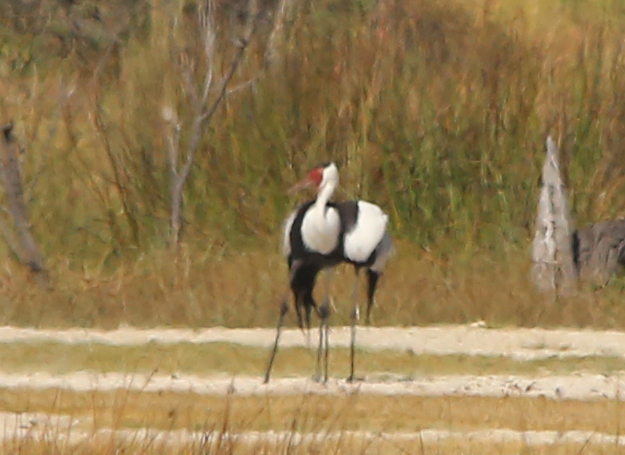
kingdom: Animalia
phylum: Chordata
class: Aves
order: Gruiformes
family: Gruidae
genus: Bugeranus
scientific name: Bugeranus carunculatus
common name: Wattled crane
